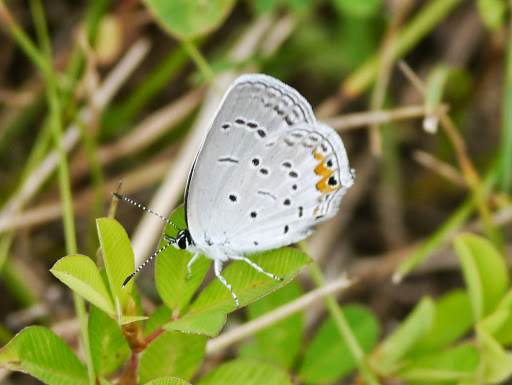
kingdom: Animalia
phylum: Arthropoda
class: Insecta
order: Lepidoptera
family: Lycaenidae
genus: Elkalyce
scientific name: Elkalyce comyntas
